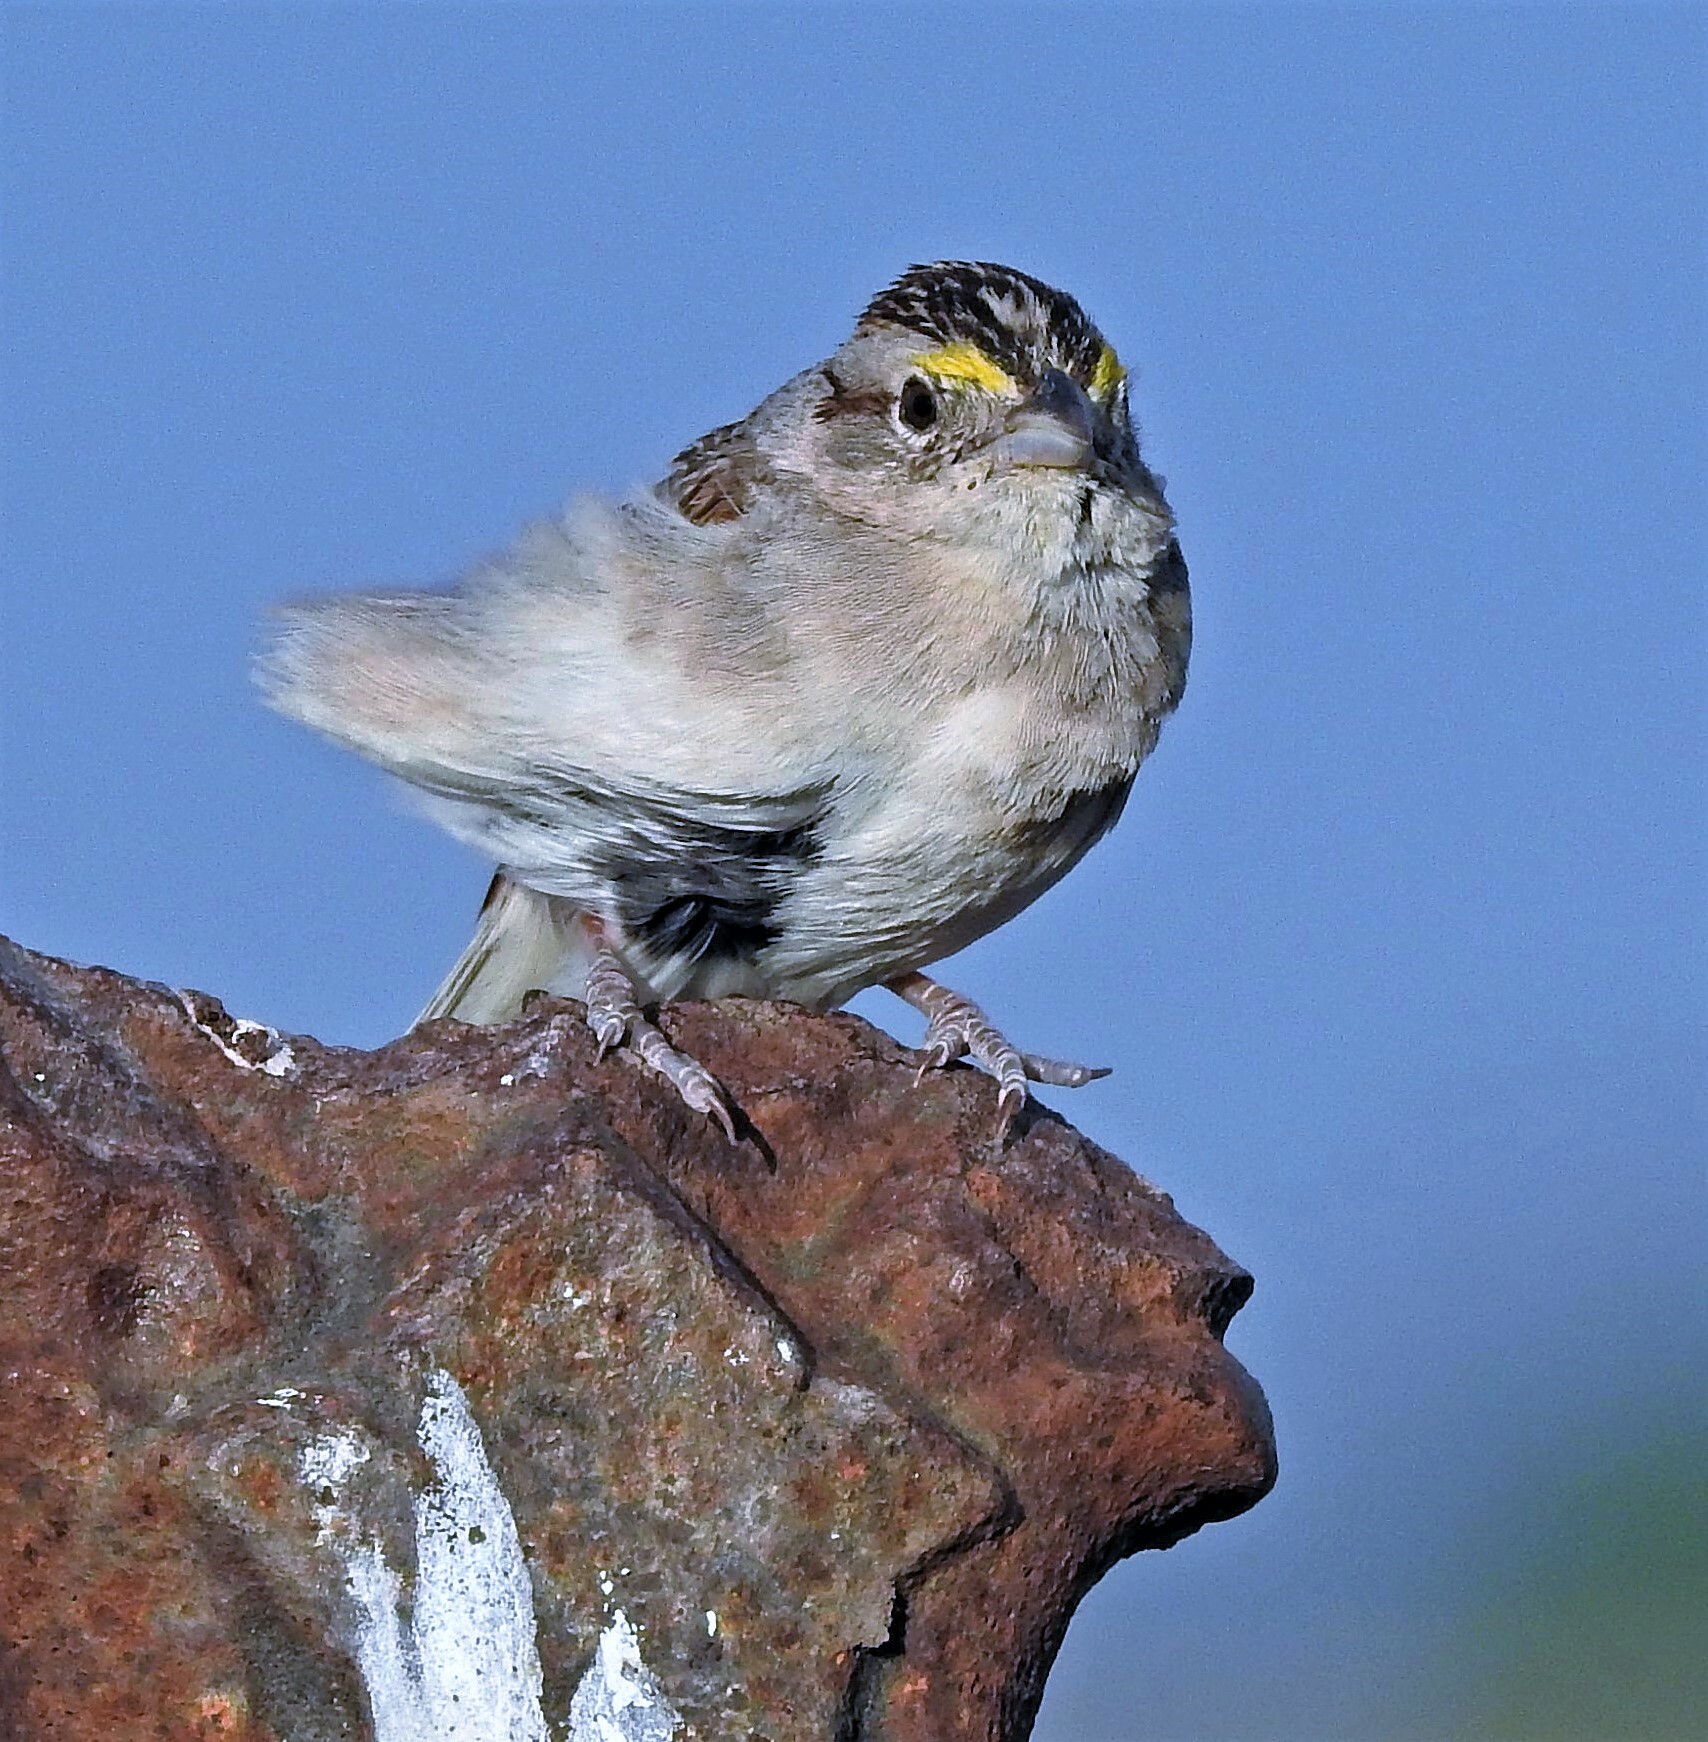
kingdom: Animalia
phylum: Chordata
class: Aves
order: Passeriformes
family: Passerellidae
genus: Ammodramus
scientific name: Ammodramus humeralis
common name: Grassland sparrow
